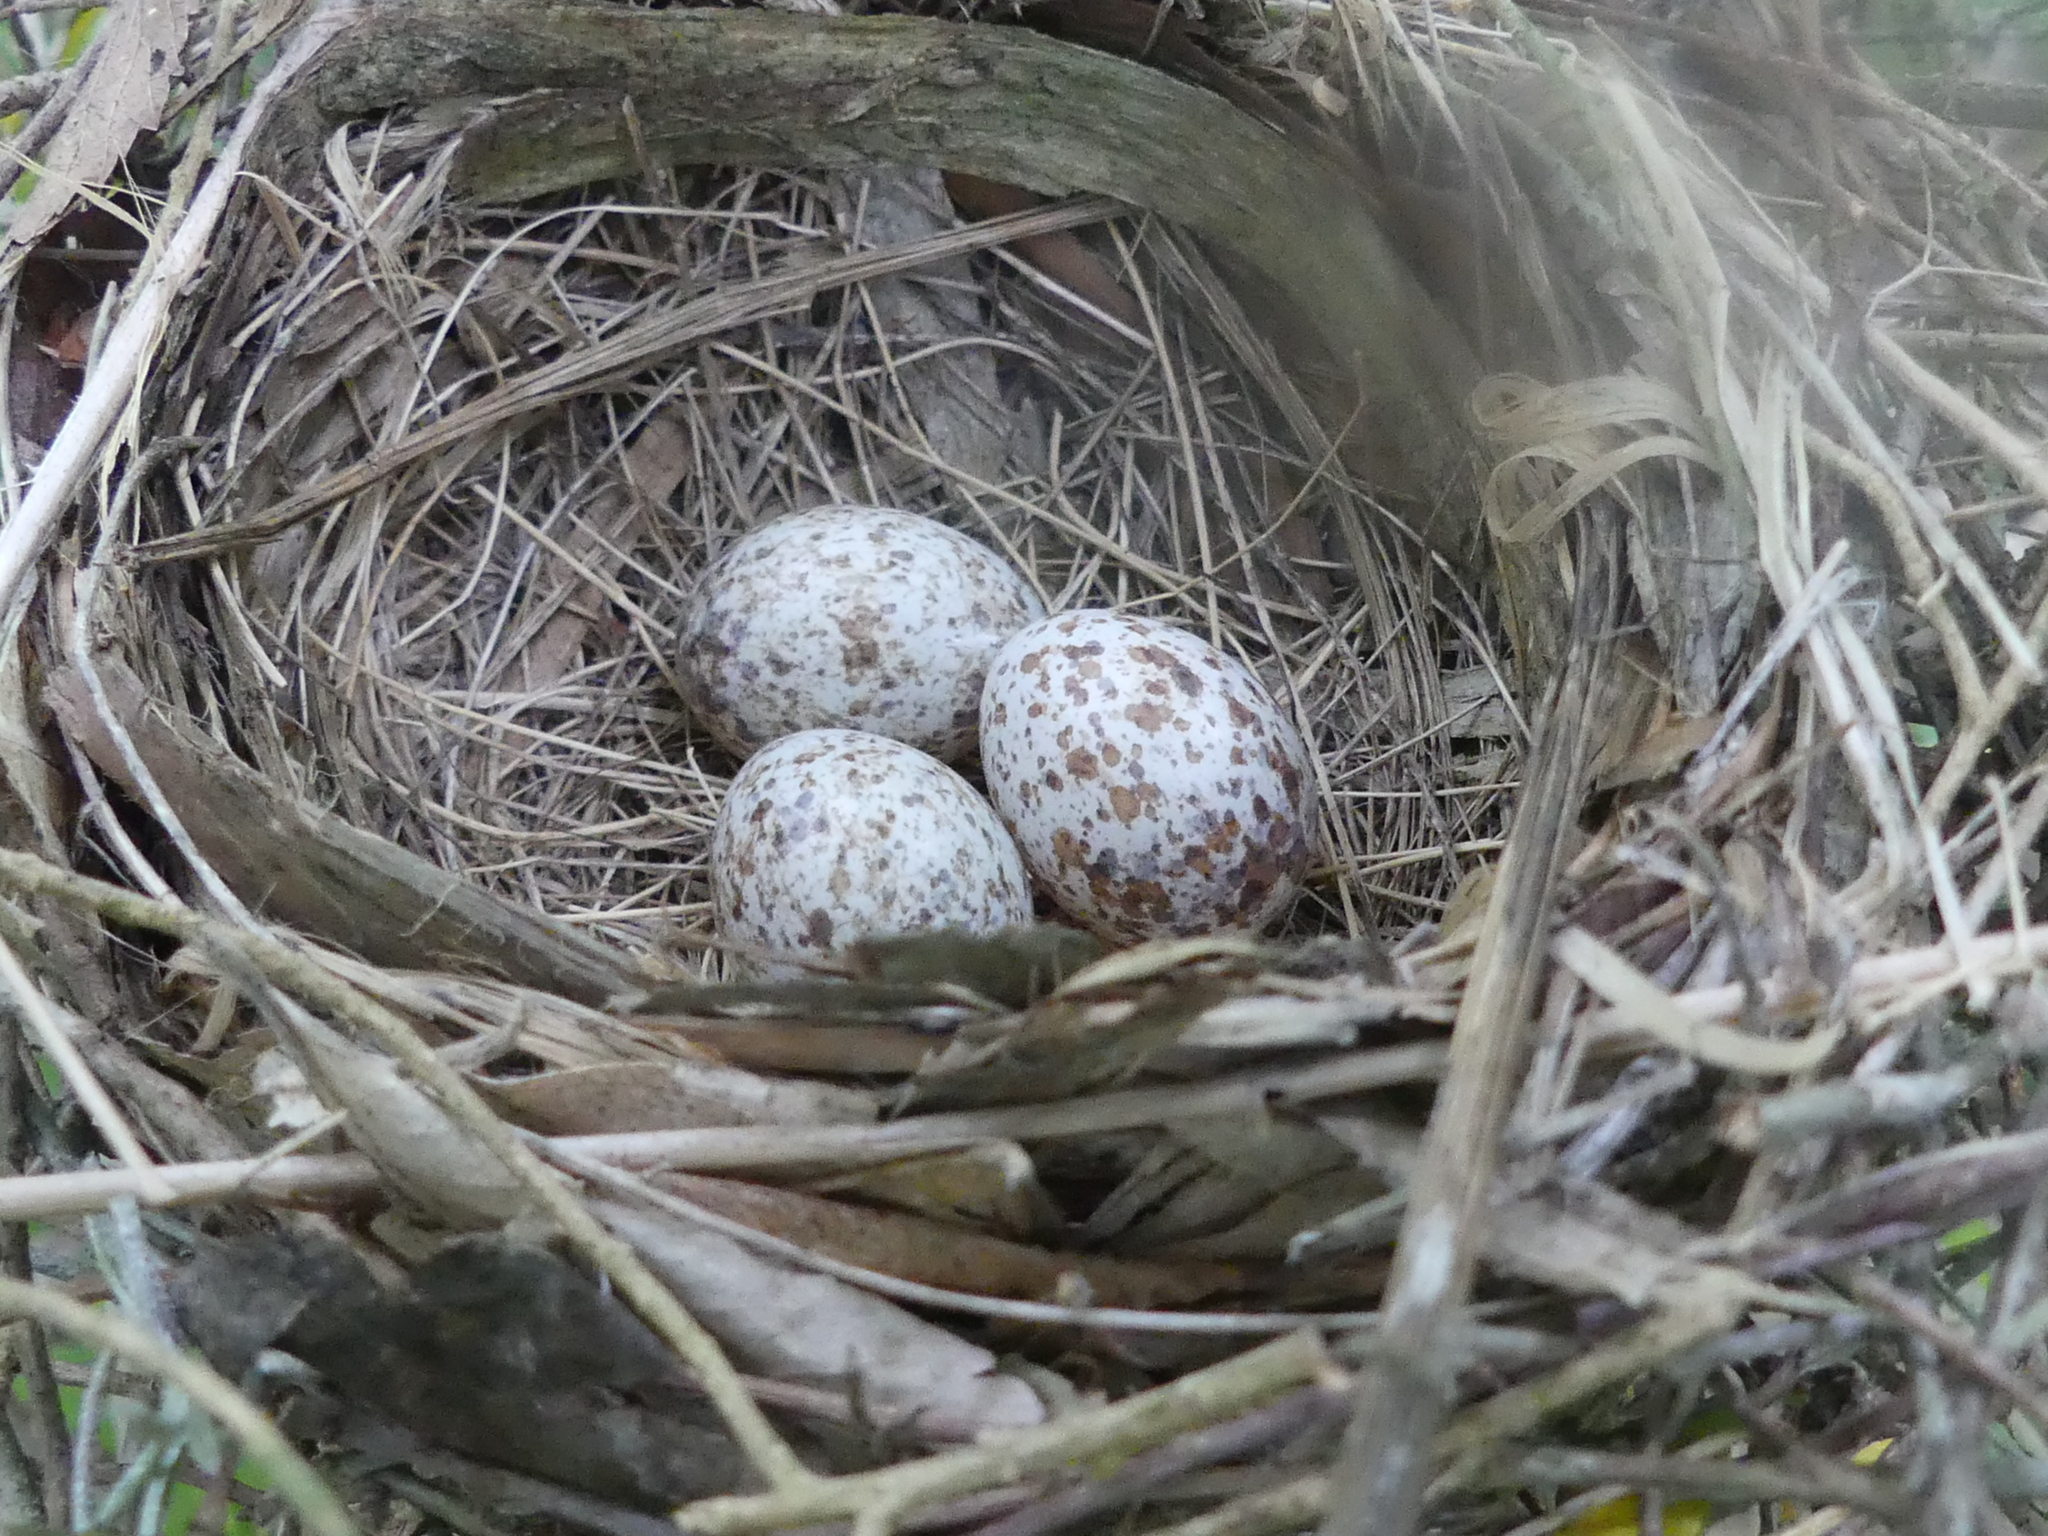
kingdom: Animalia
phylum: Chordata
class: Aves
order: Passeriformes
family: Cardinalidae
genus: Cardinalis
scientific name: Cardinalis cardinalis
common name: Northern cardinal
